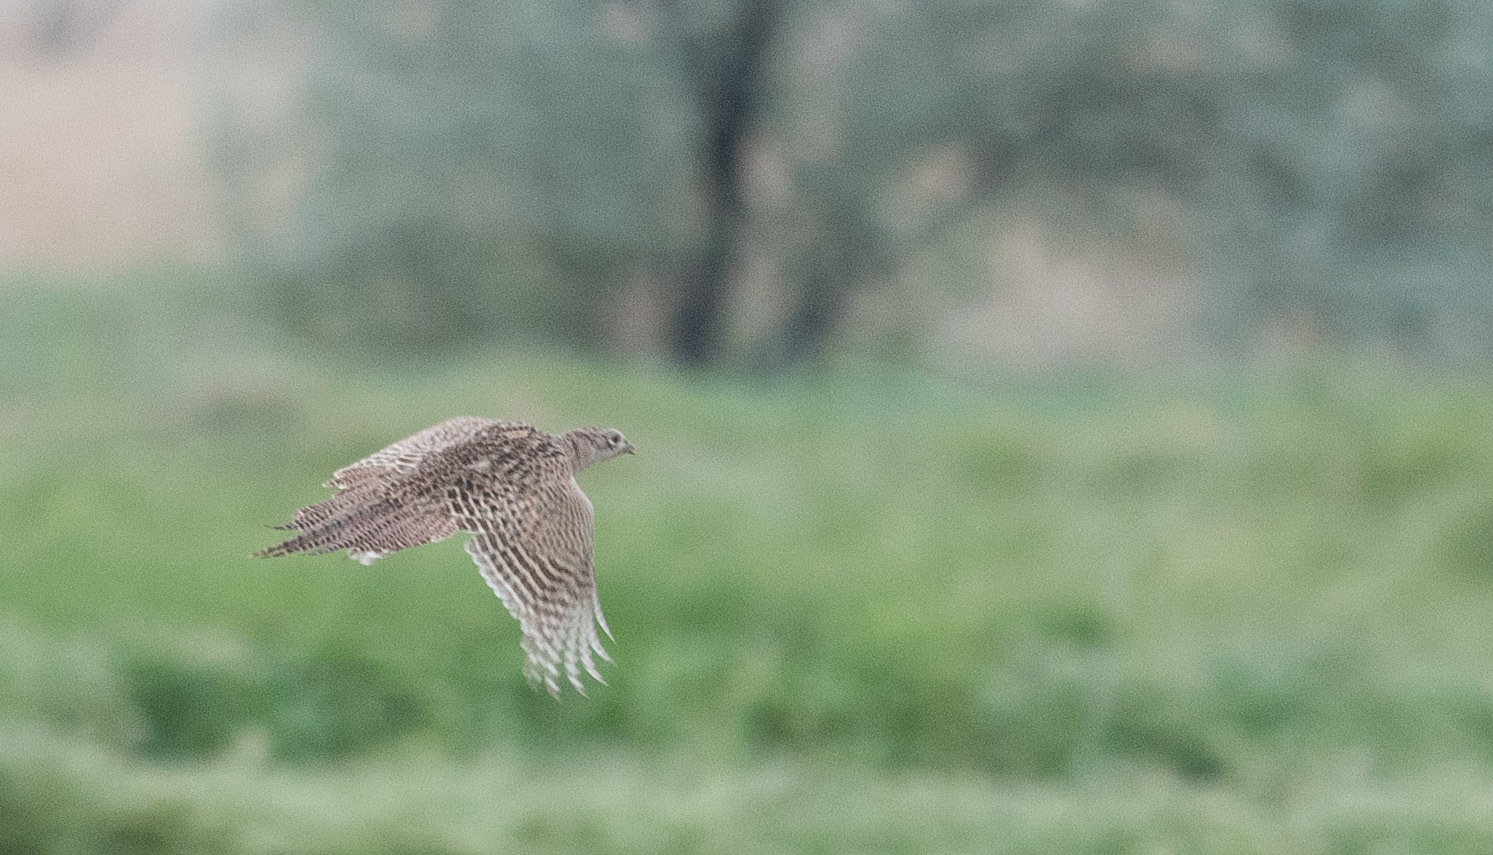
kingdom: Animalia
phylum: Chordata
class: Aves
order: Galliformes
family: Phasianidae
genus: Phasianus
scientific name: Phasianus colchicus
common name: Common pheasant
